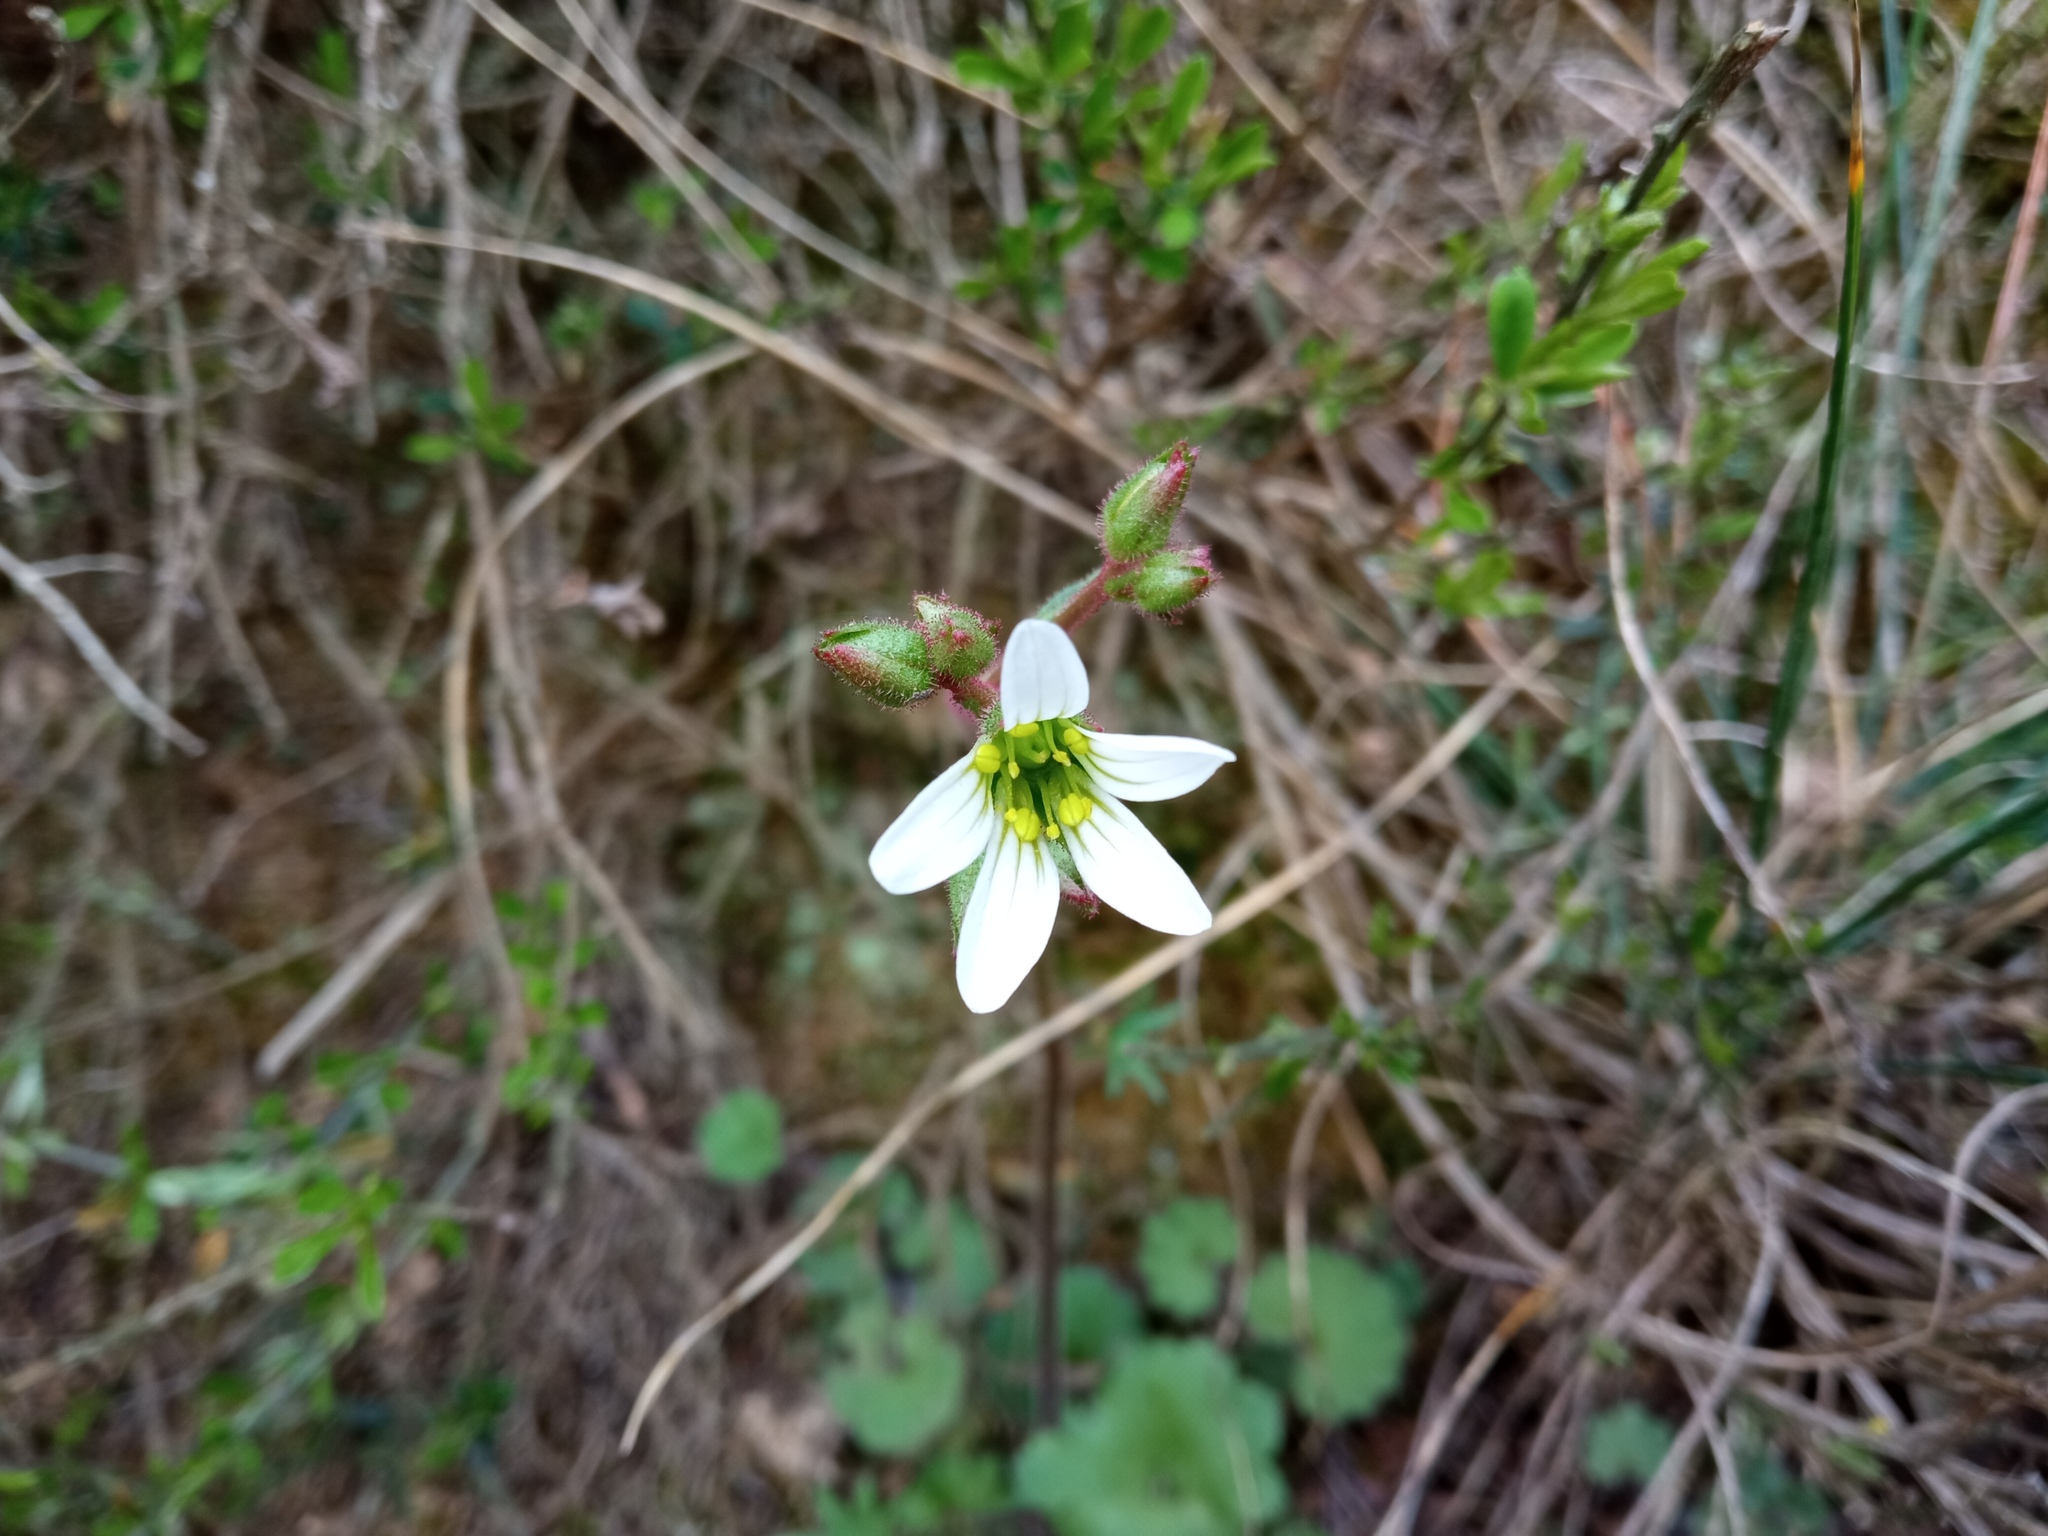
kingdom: Plantae
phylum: Tracheophyta
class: Magnoliopsida
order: Saxifragales
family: Saxifragaceae
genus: Saxifraga
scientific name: Saxifraga granulata
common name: Meadow saxifrage
